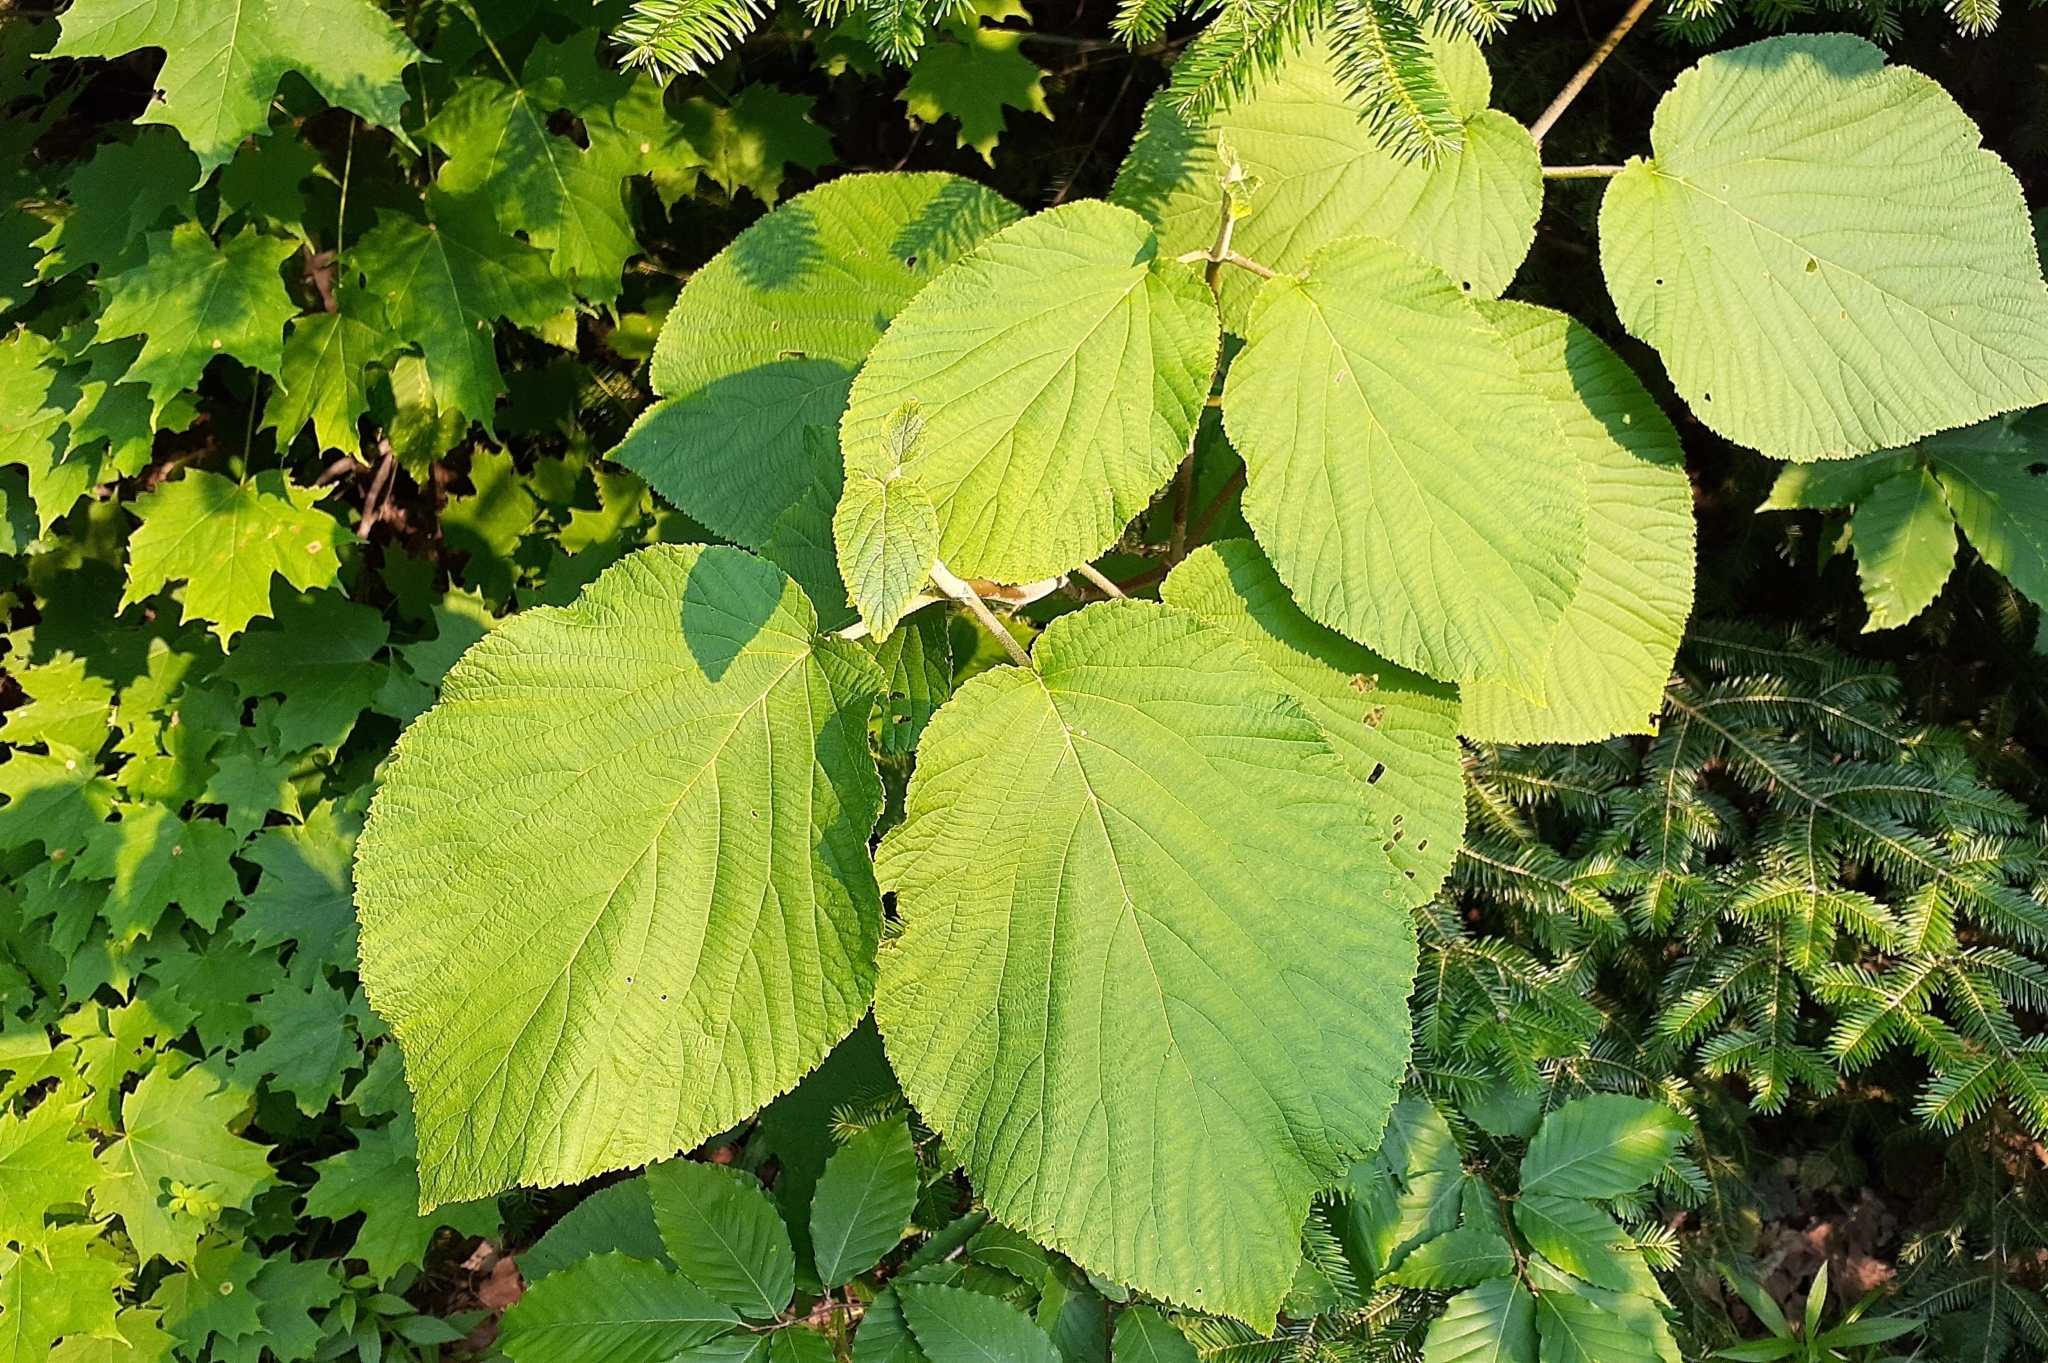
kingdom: Plantae
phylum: Tracheophyta
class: Magnoliopsida
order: Dipsacales
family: Viburnaceae
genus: Viburnum
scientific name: Viburnum lantanoides
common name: Hobblebush
